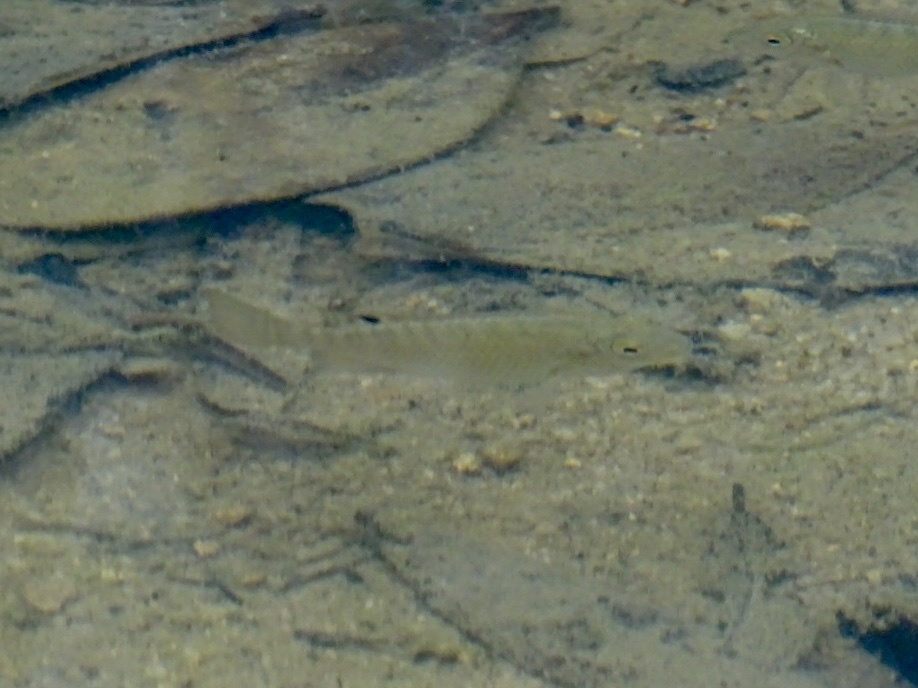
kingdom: Animalia
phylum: Chordata
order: Perciformes
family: Cichlidae
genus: Coptodon
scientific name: Coptodon zillii
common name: Redbelly tilapia
